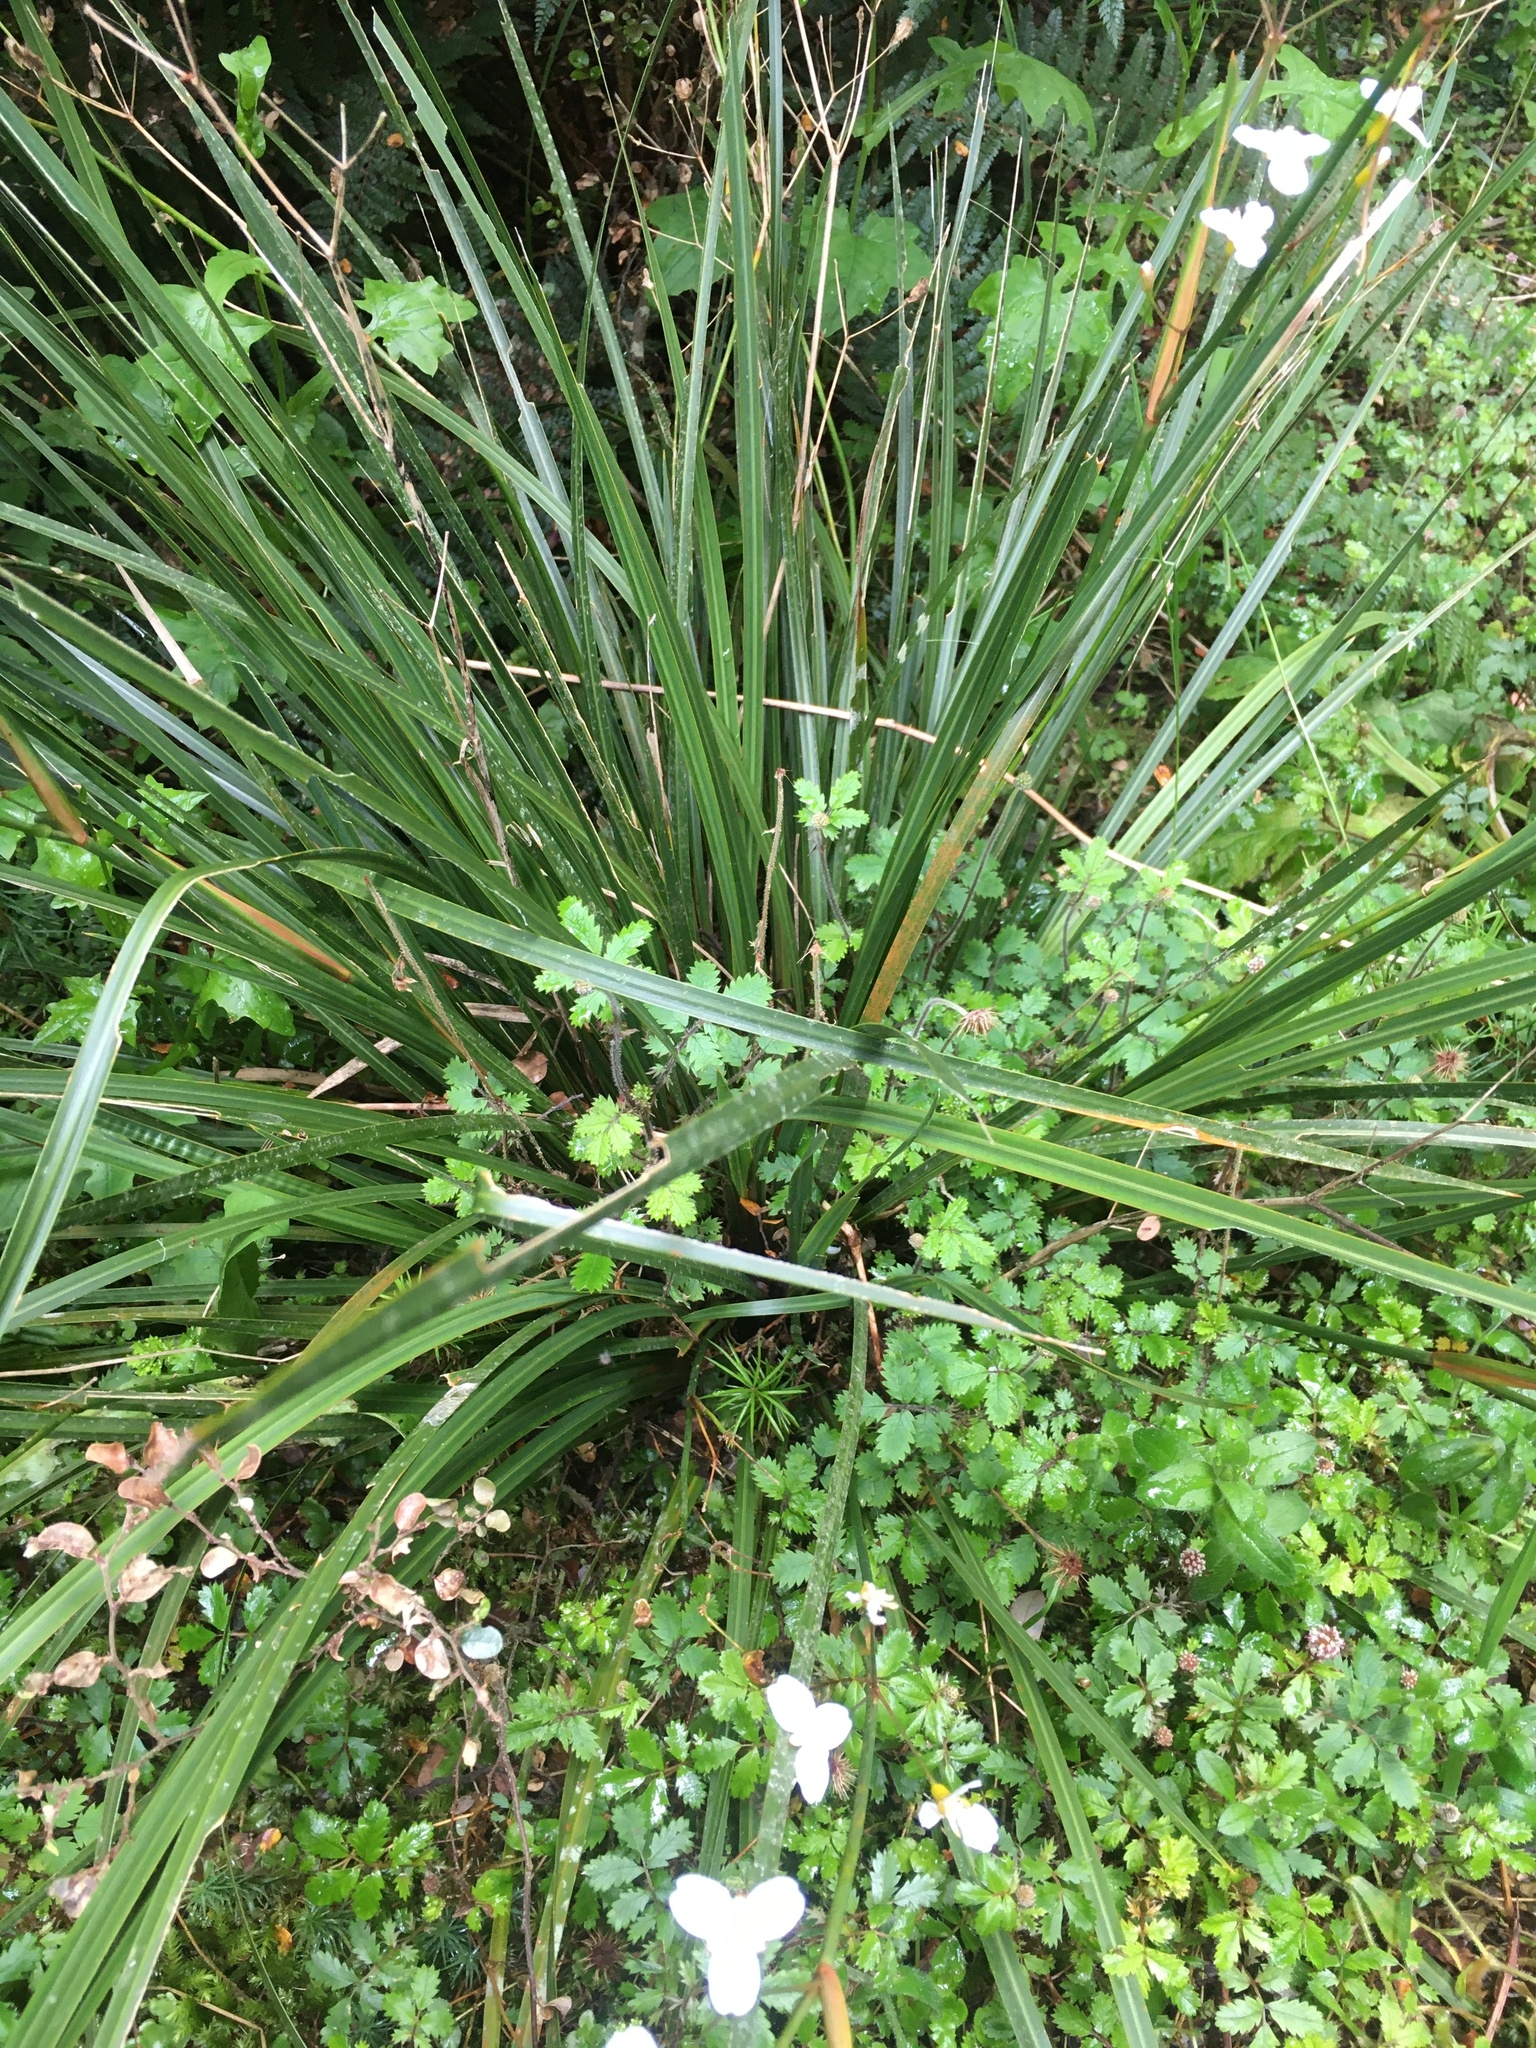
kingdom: Plantae
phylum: Tracheophyta
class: Liliopsida
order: Asparagales
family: Iridaceae
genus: Libertia
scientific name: Libertia ixioides
